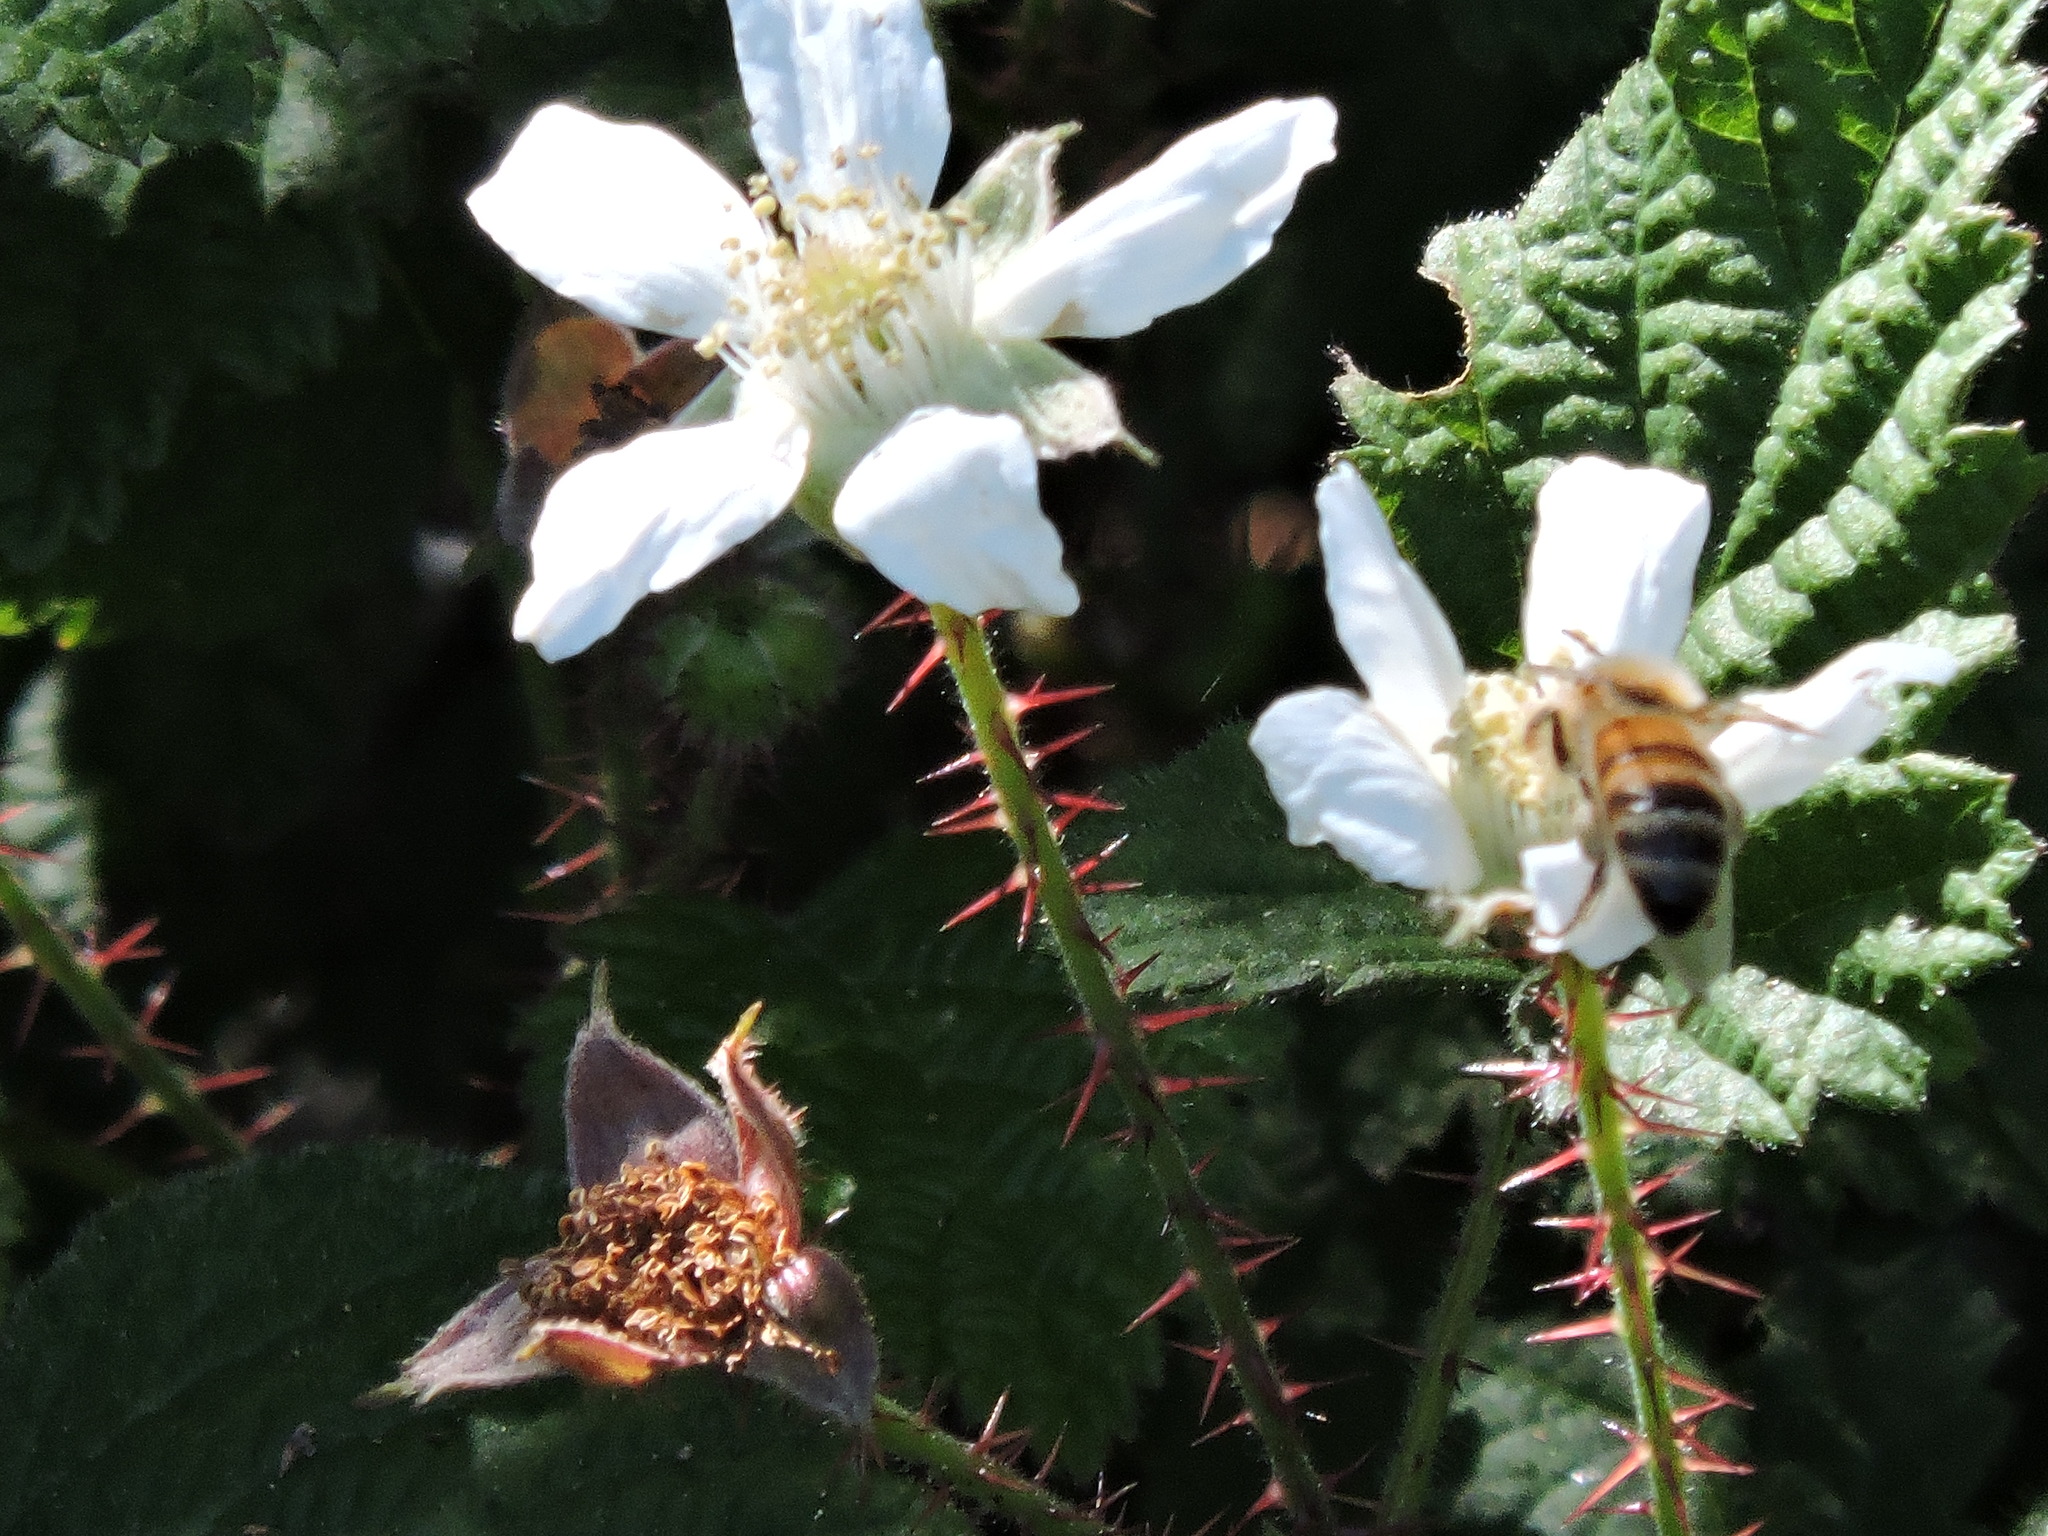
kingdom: Plantae
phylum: Tracheophyta
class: Magnoliopsida
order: Rosales
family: Rosaceae
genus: Rubus
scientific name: Rubus ursinus
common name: Pacific blackberry
